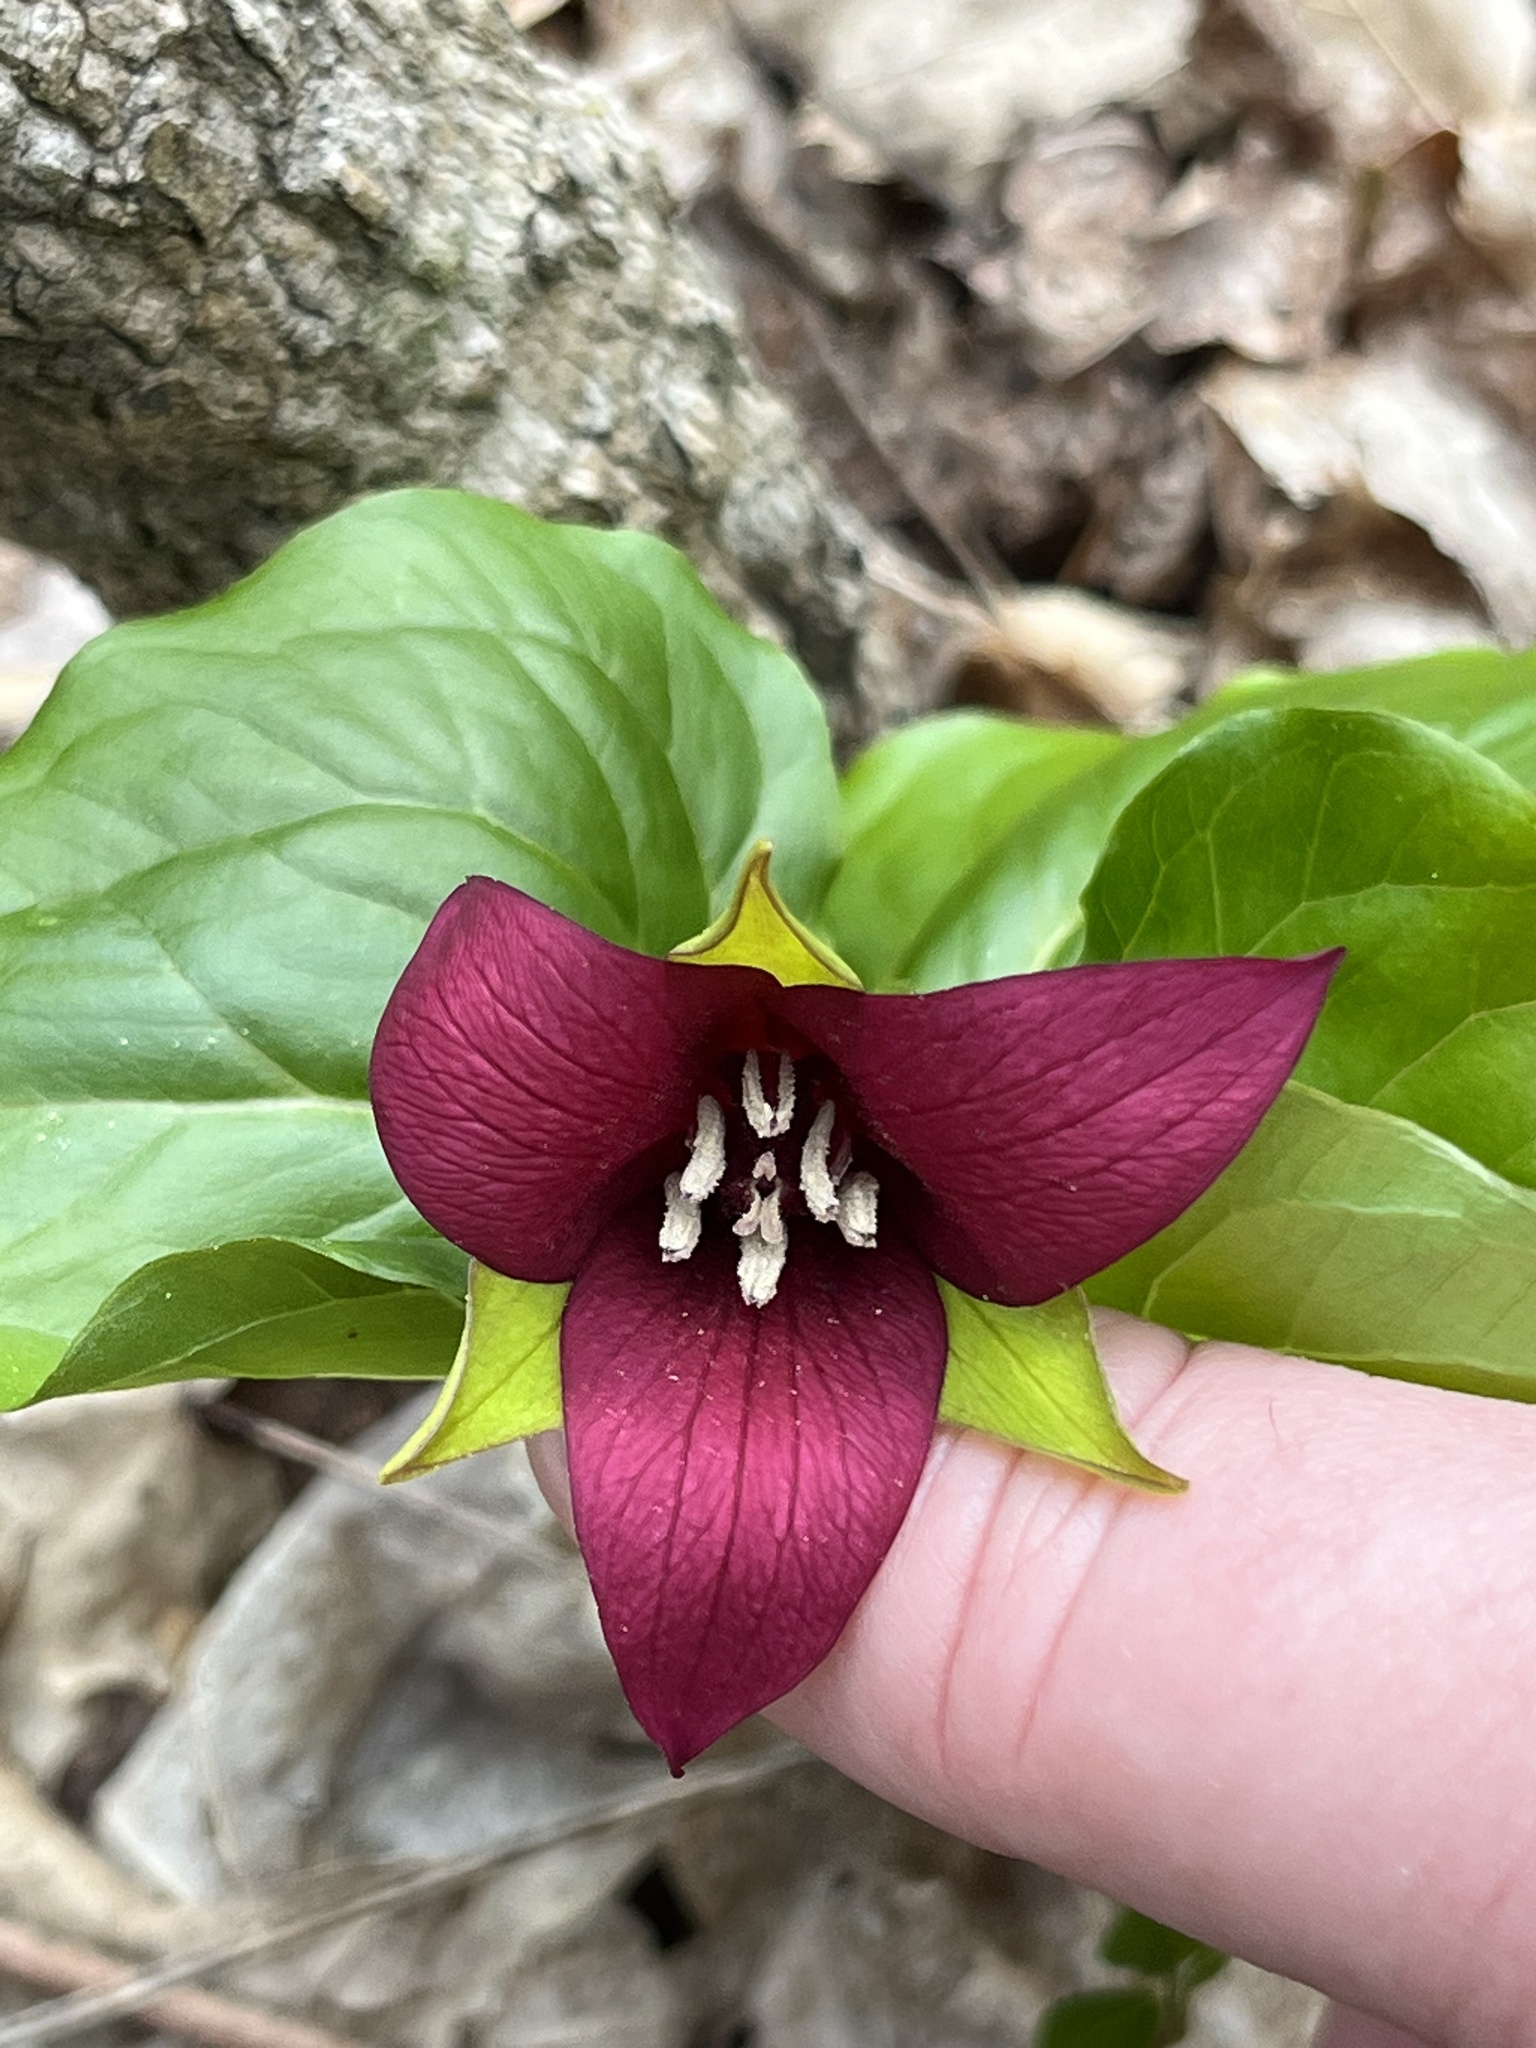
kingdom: Plantae
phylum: Tracheophyta
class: Liliopsida
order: Liliales
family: Melanthiaceae
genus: Trillium
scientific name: Trillium erectum
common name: Purple trillium
